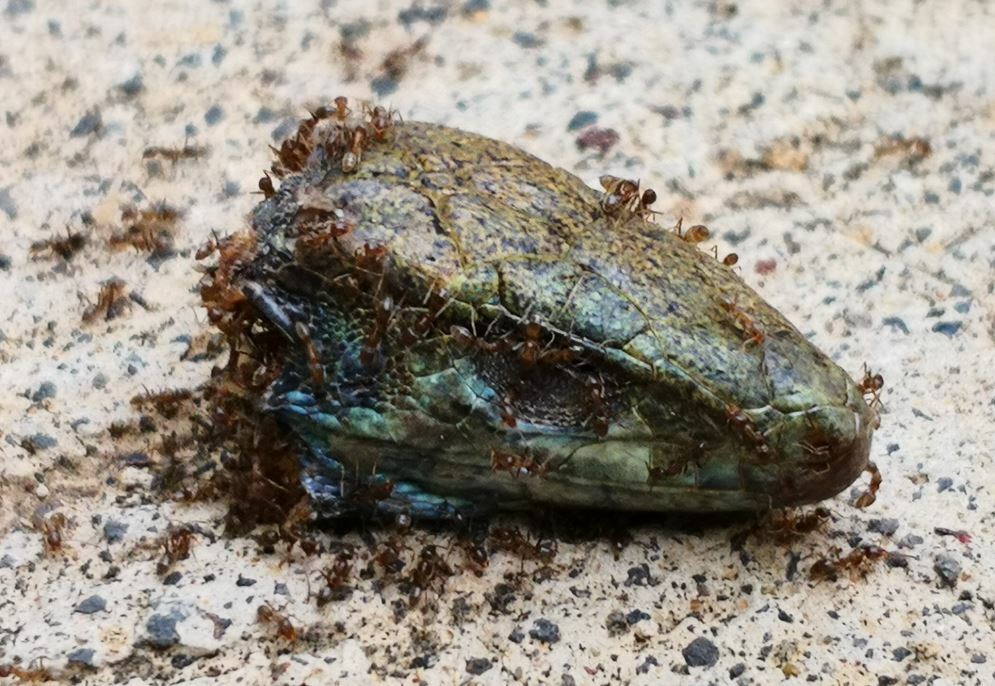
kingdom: Animalia
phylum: Arthropoda
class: Insecta
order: Hymenoptera
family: Formicidae
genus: Linepithema
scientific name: Linepithema humile
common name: Argentine ant
